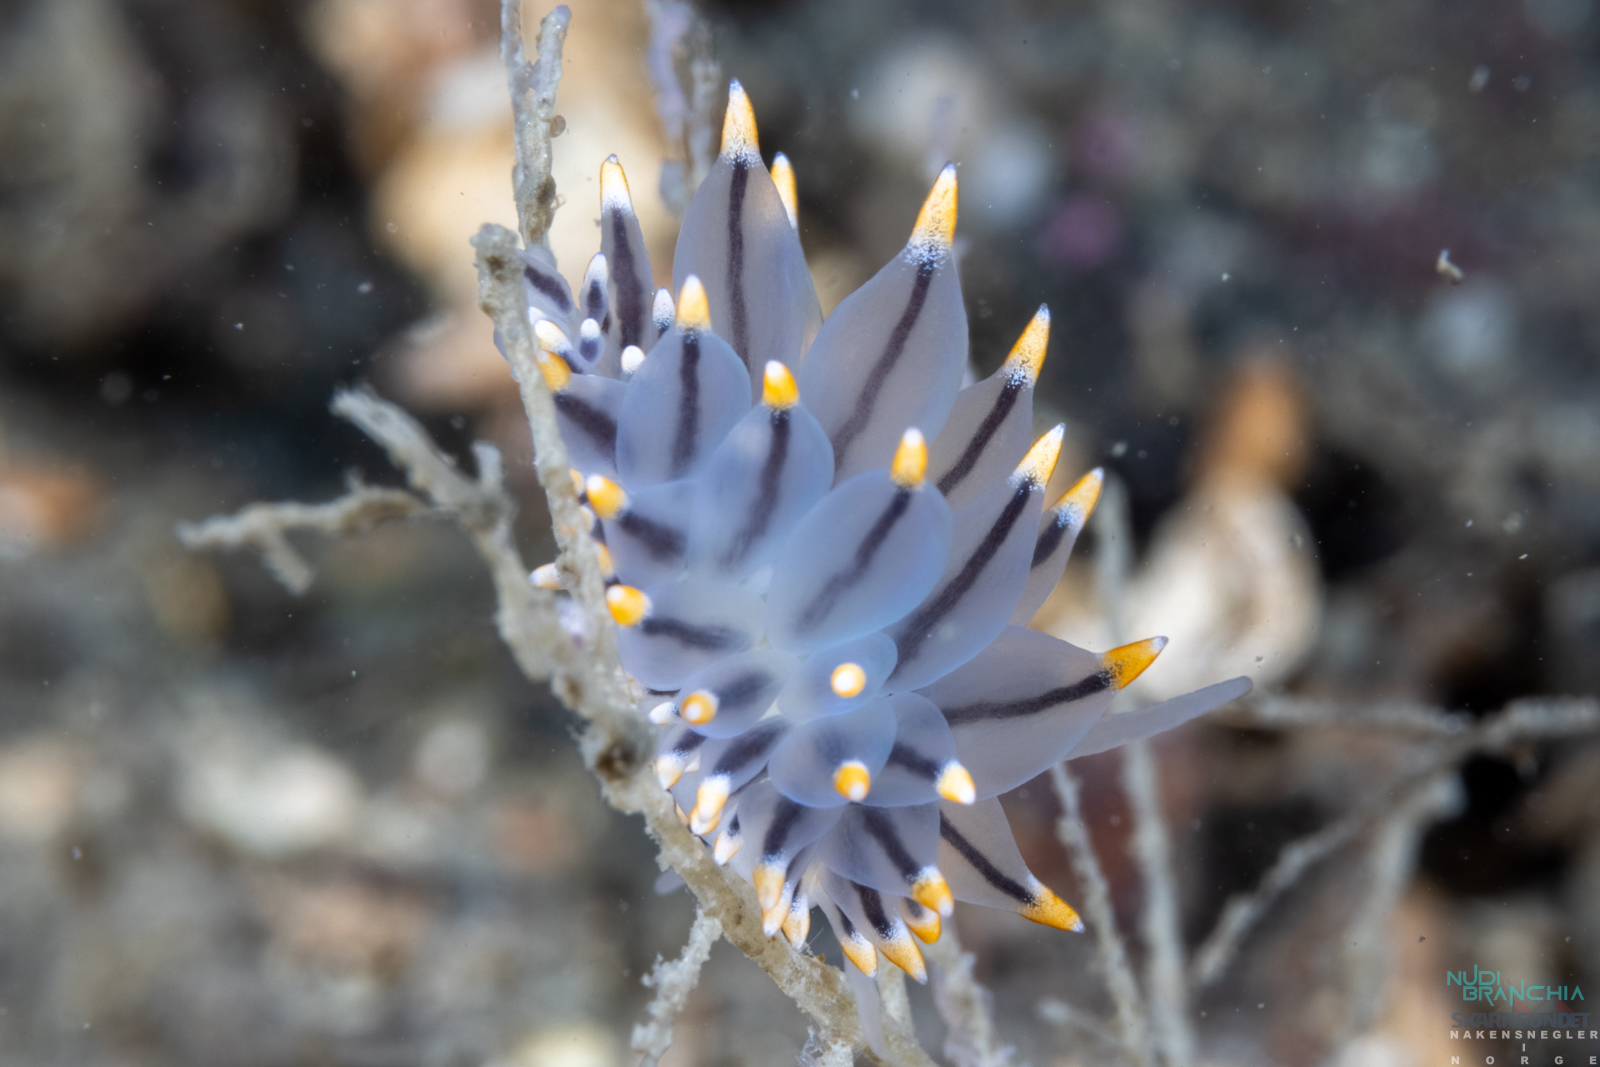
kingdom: Animalia
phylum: Mollusca
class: Gastropoda
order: Nudibranchia
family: Eubranchidae
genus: Eubranchus
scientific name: Eubranchus tricolor
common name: Painted balloon aeolis
